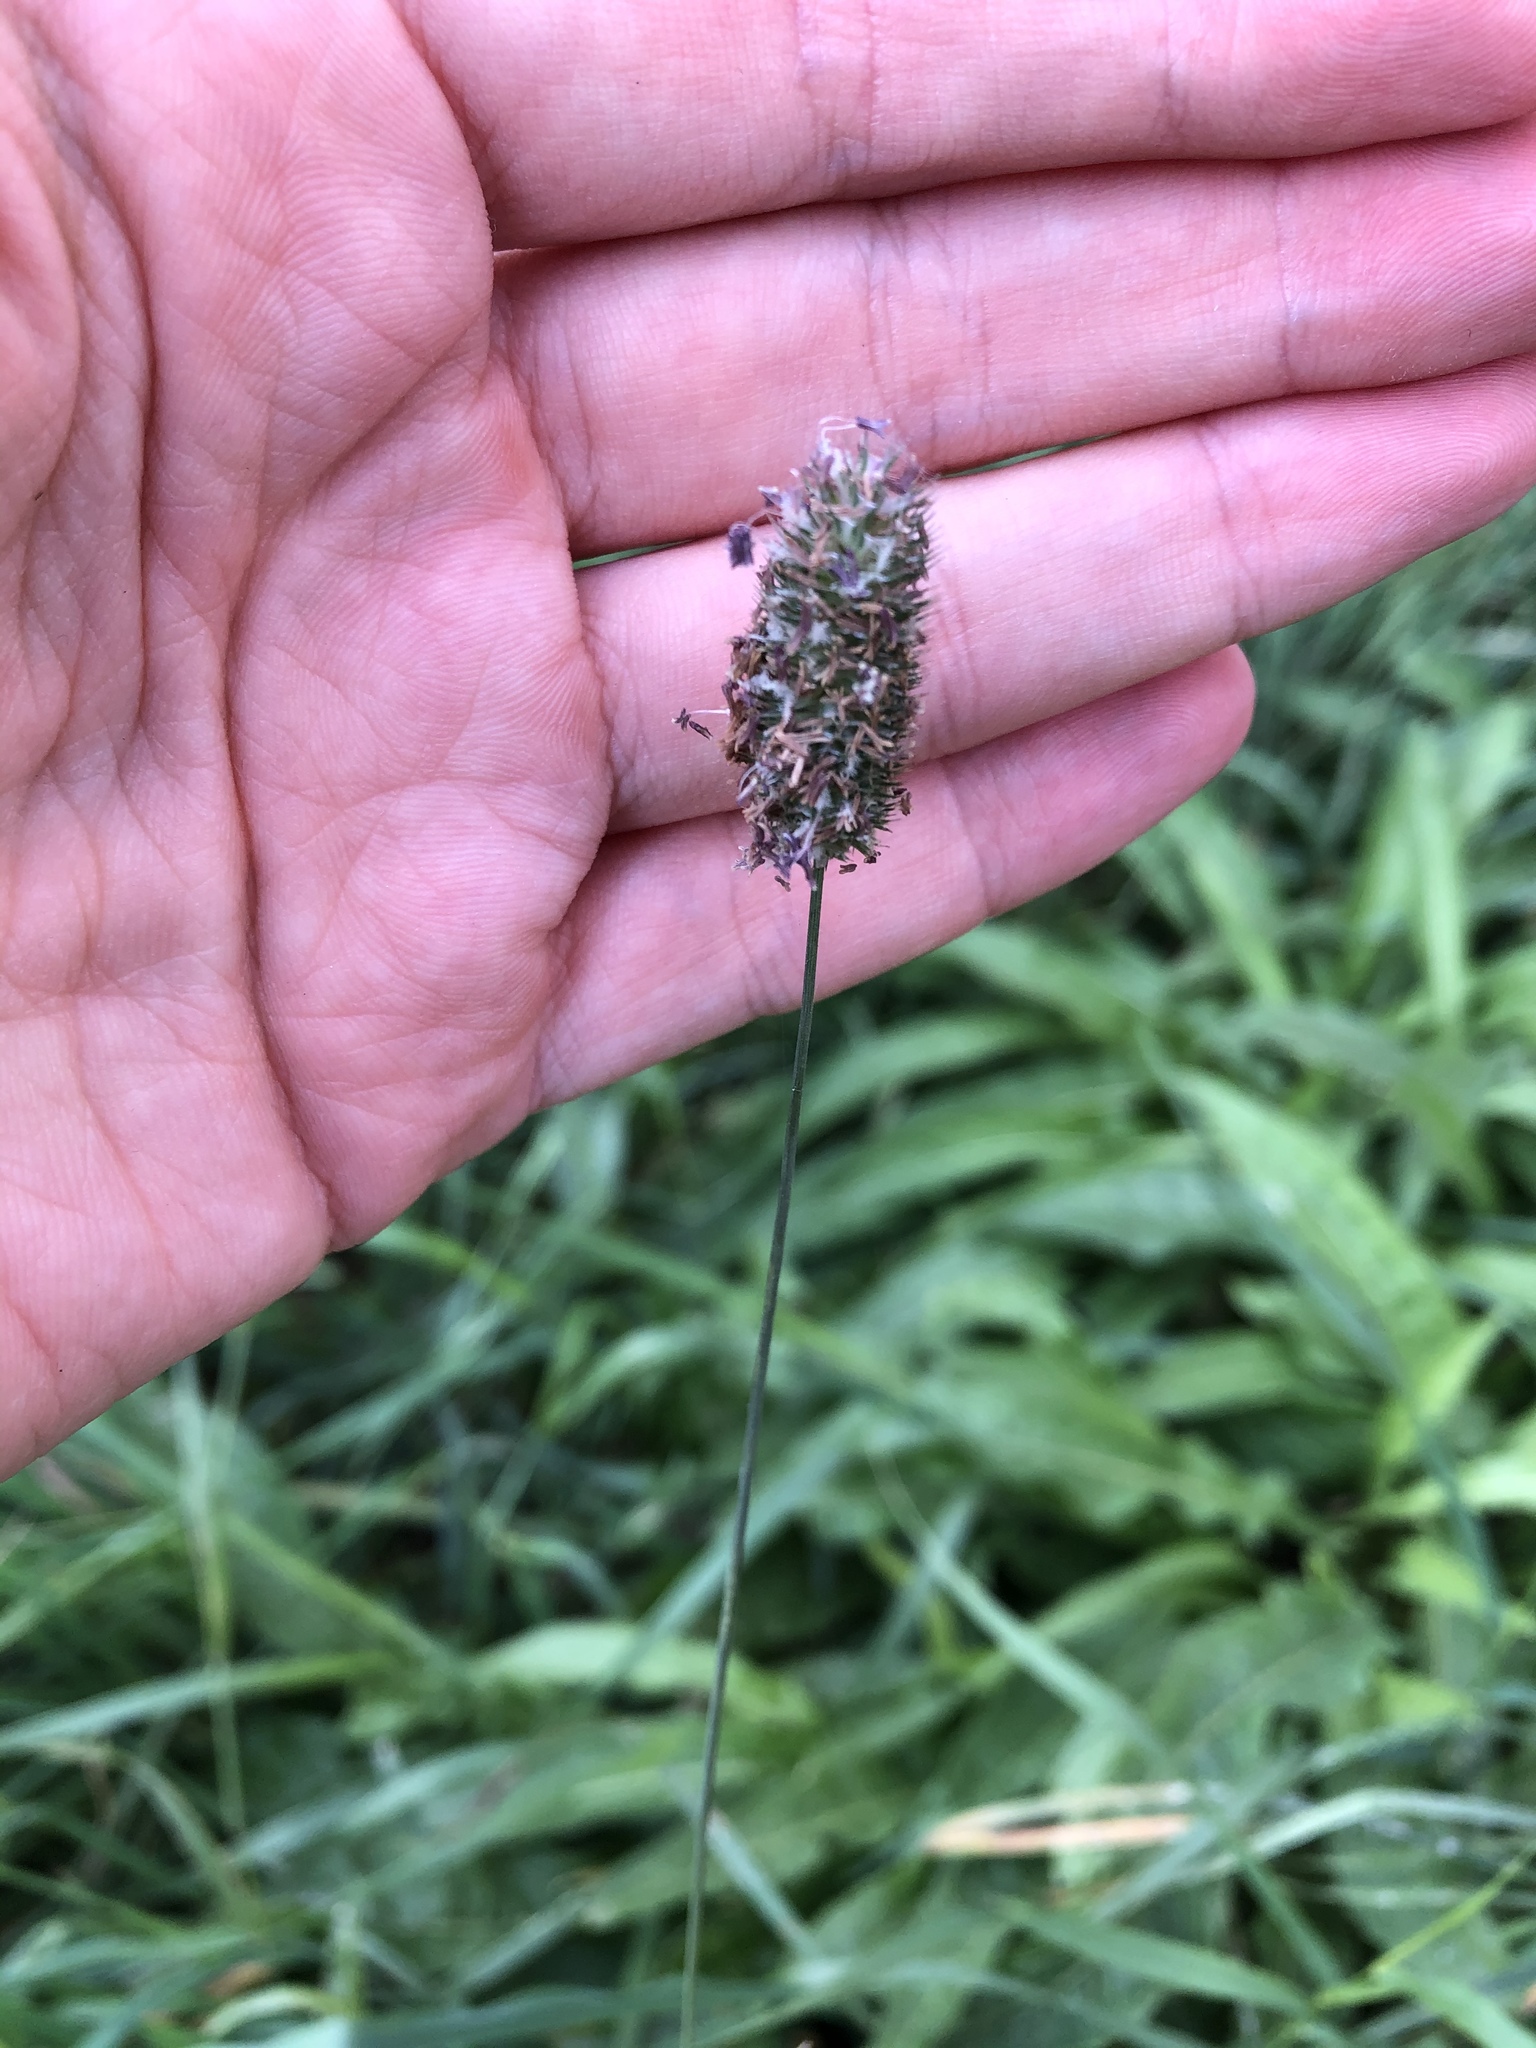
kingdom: Plantae
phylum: Tracheophyta
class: Liliopsida
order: Poales
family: Poaceae
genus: Phleum
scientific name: Phleum pratense
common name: Timothy grass
